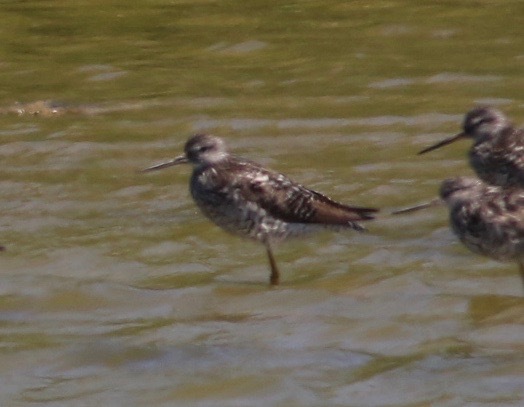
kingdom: Animalia
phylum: Chordata
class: Aves
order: Charadriiformes
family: Scolopacidae
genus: Tringa
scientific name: Tringa melanoleuca
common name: Greater yellowlegs
